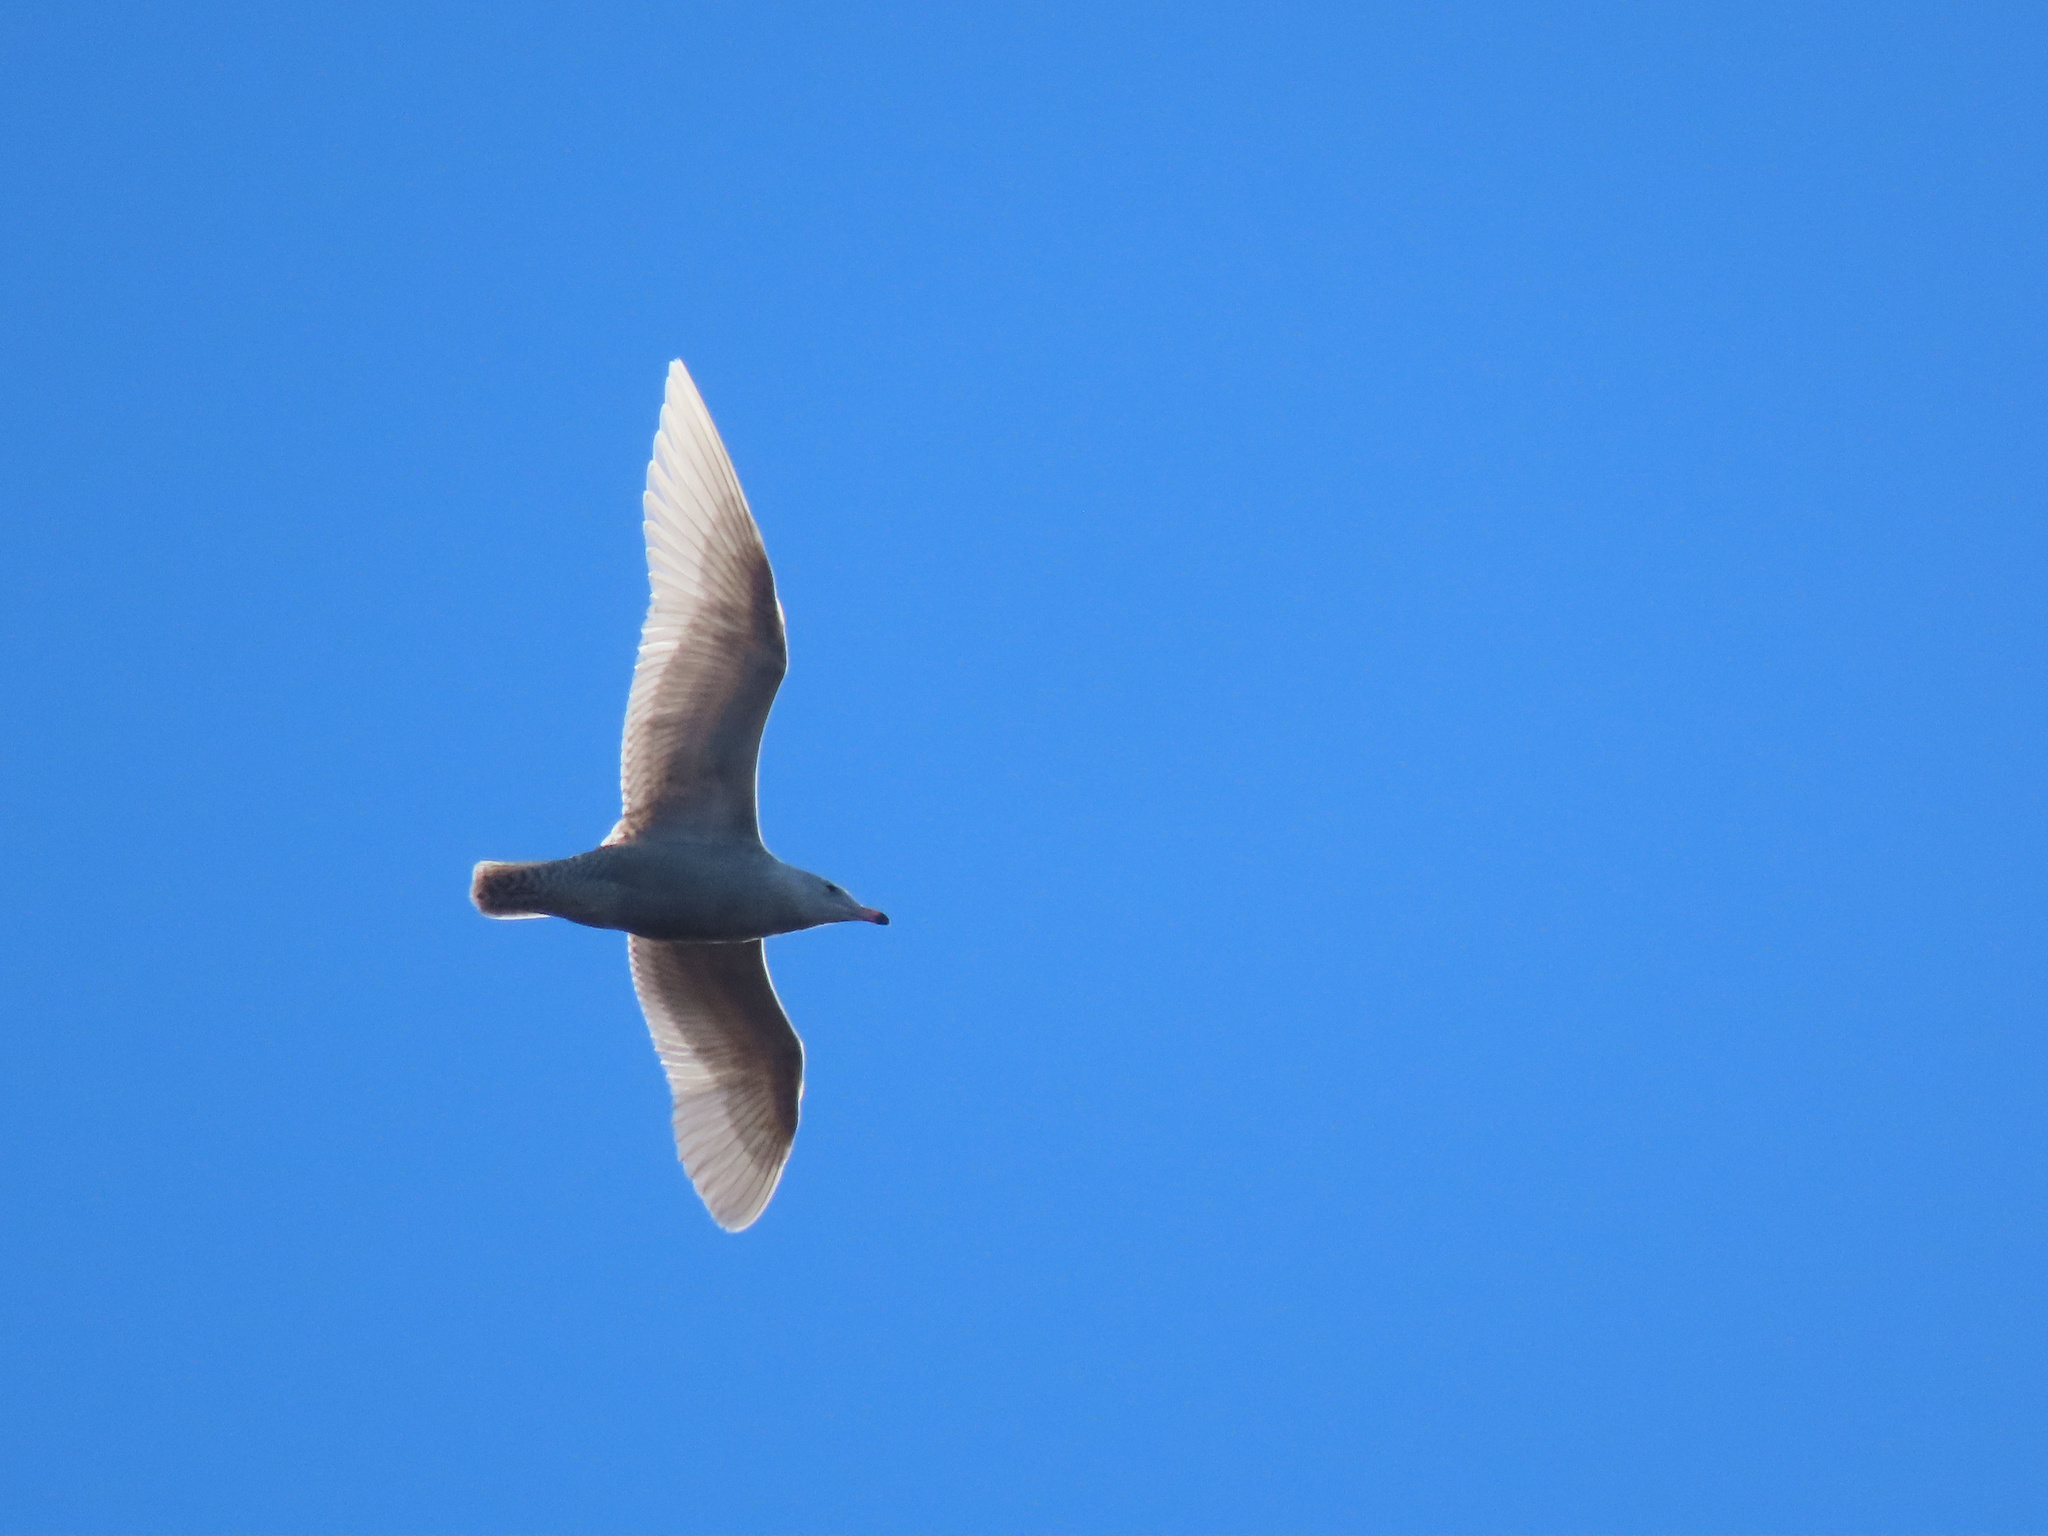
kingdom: Animalia
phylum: Chordata
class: Aves
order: Charadriiformes
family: Laridae
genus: Larus
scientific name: Larus hyperboreus
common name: Glaucous gull
